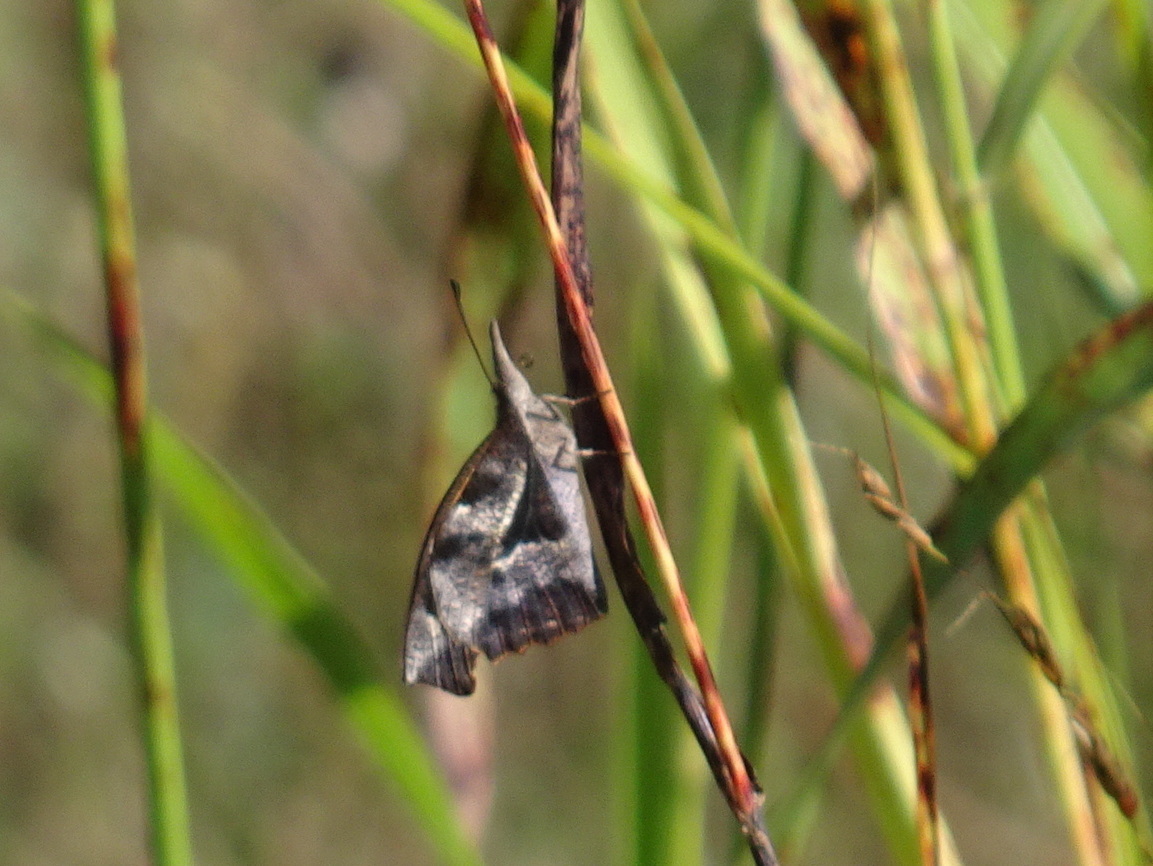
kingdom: Animalia
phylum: Arthropoda
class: Insecta
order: Lepidoptera
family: Nymphalidae
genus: Libytheana
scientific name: Libytheana carinenta
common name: American snout
